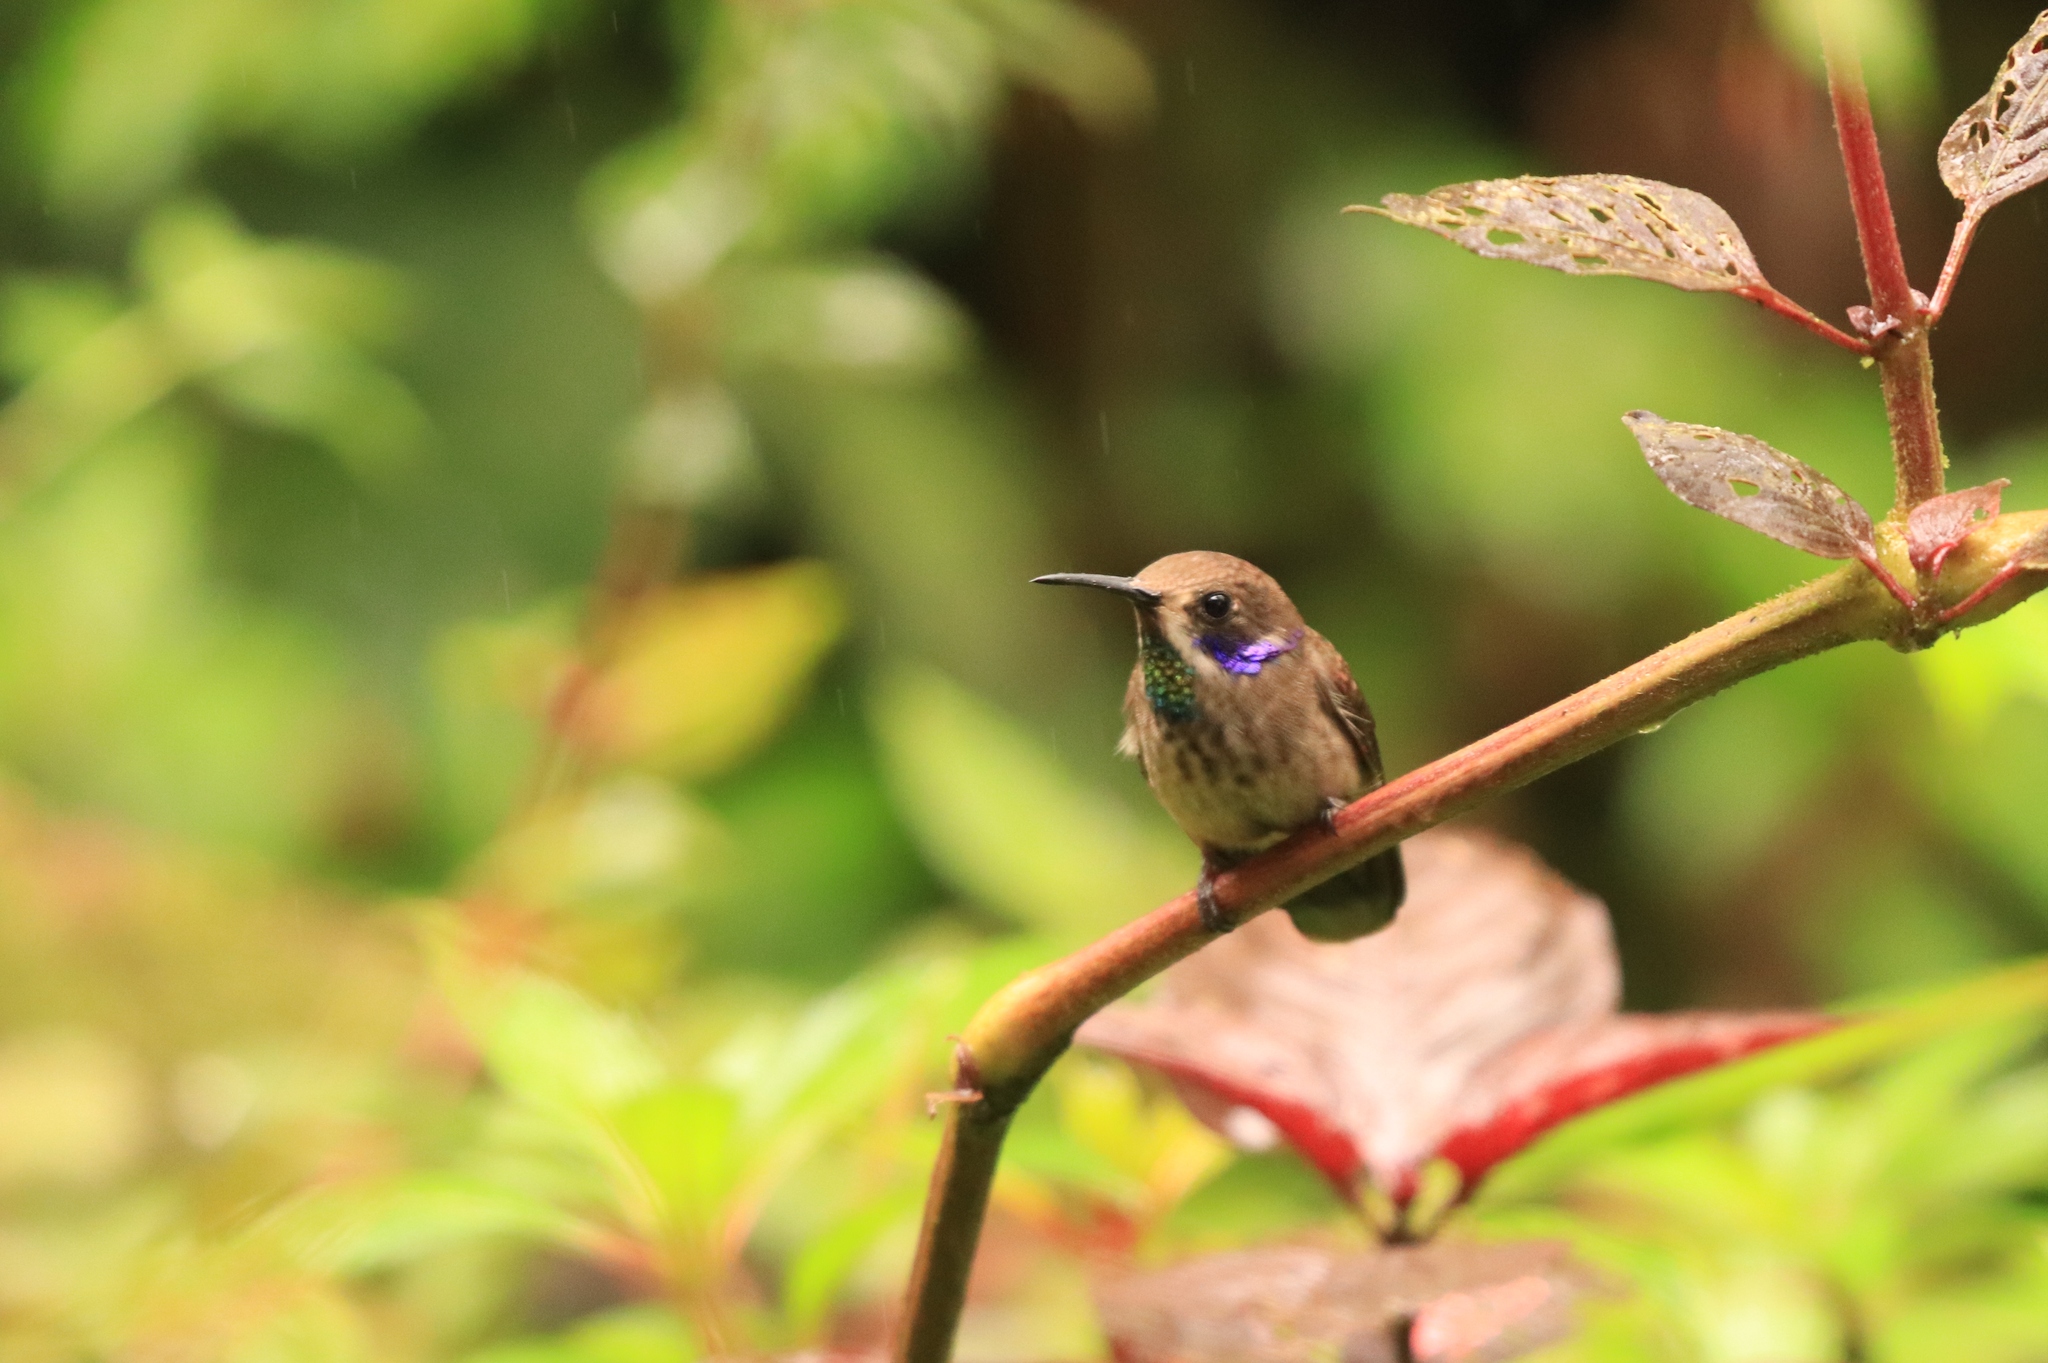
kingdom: Animalia
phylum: Chordata
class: Aves
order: Apodiformes
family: Trochilidae
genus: Colibri
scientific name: Colibri delphinae
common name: Brown violetear
